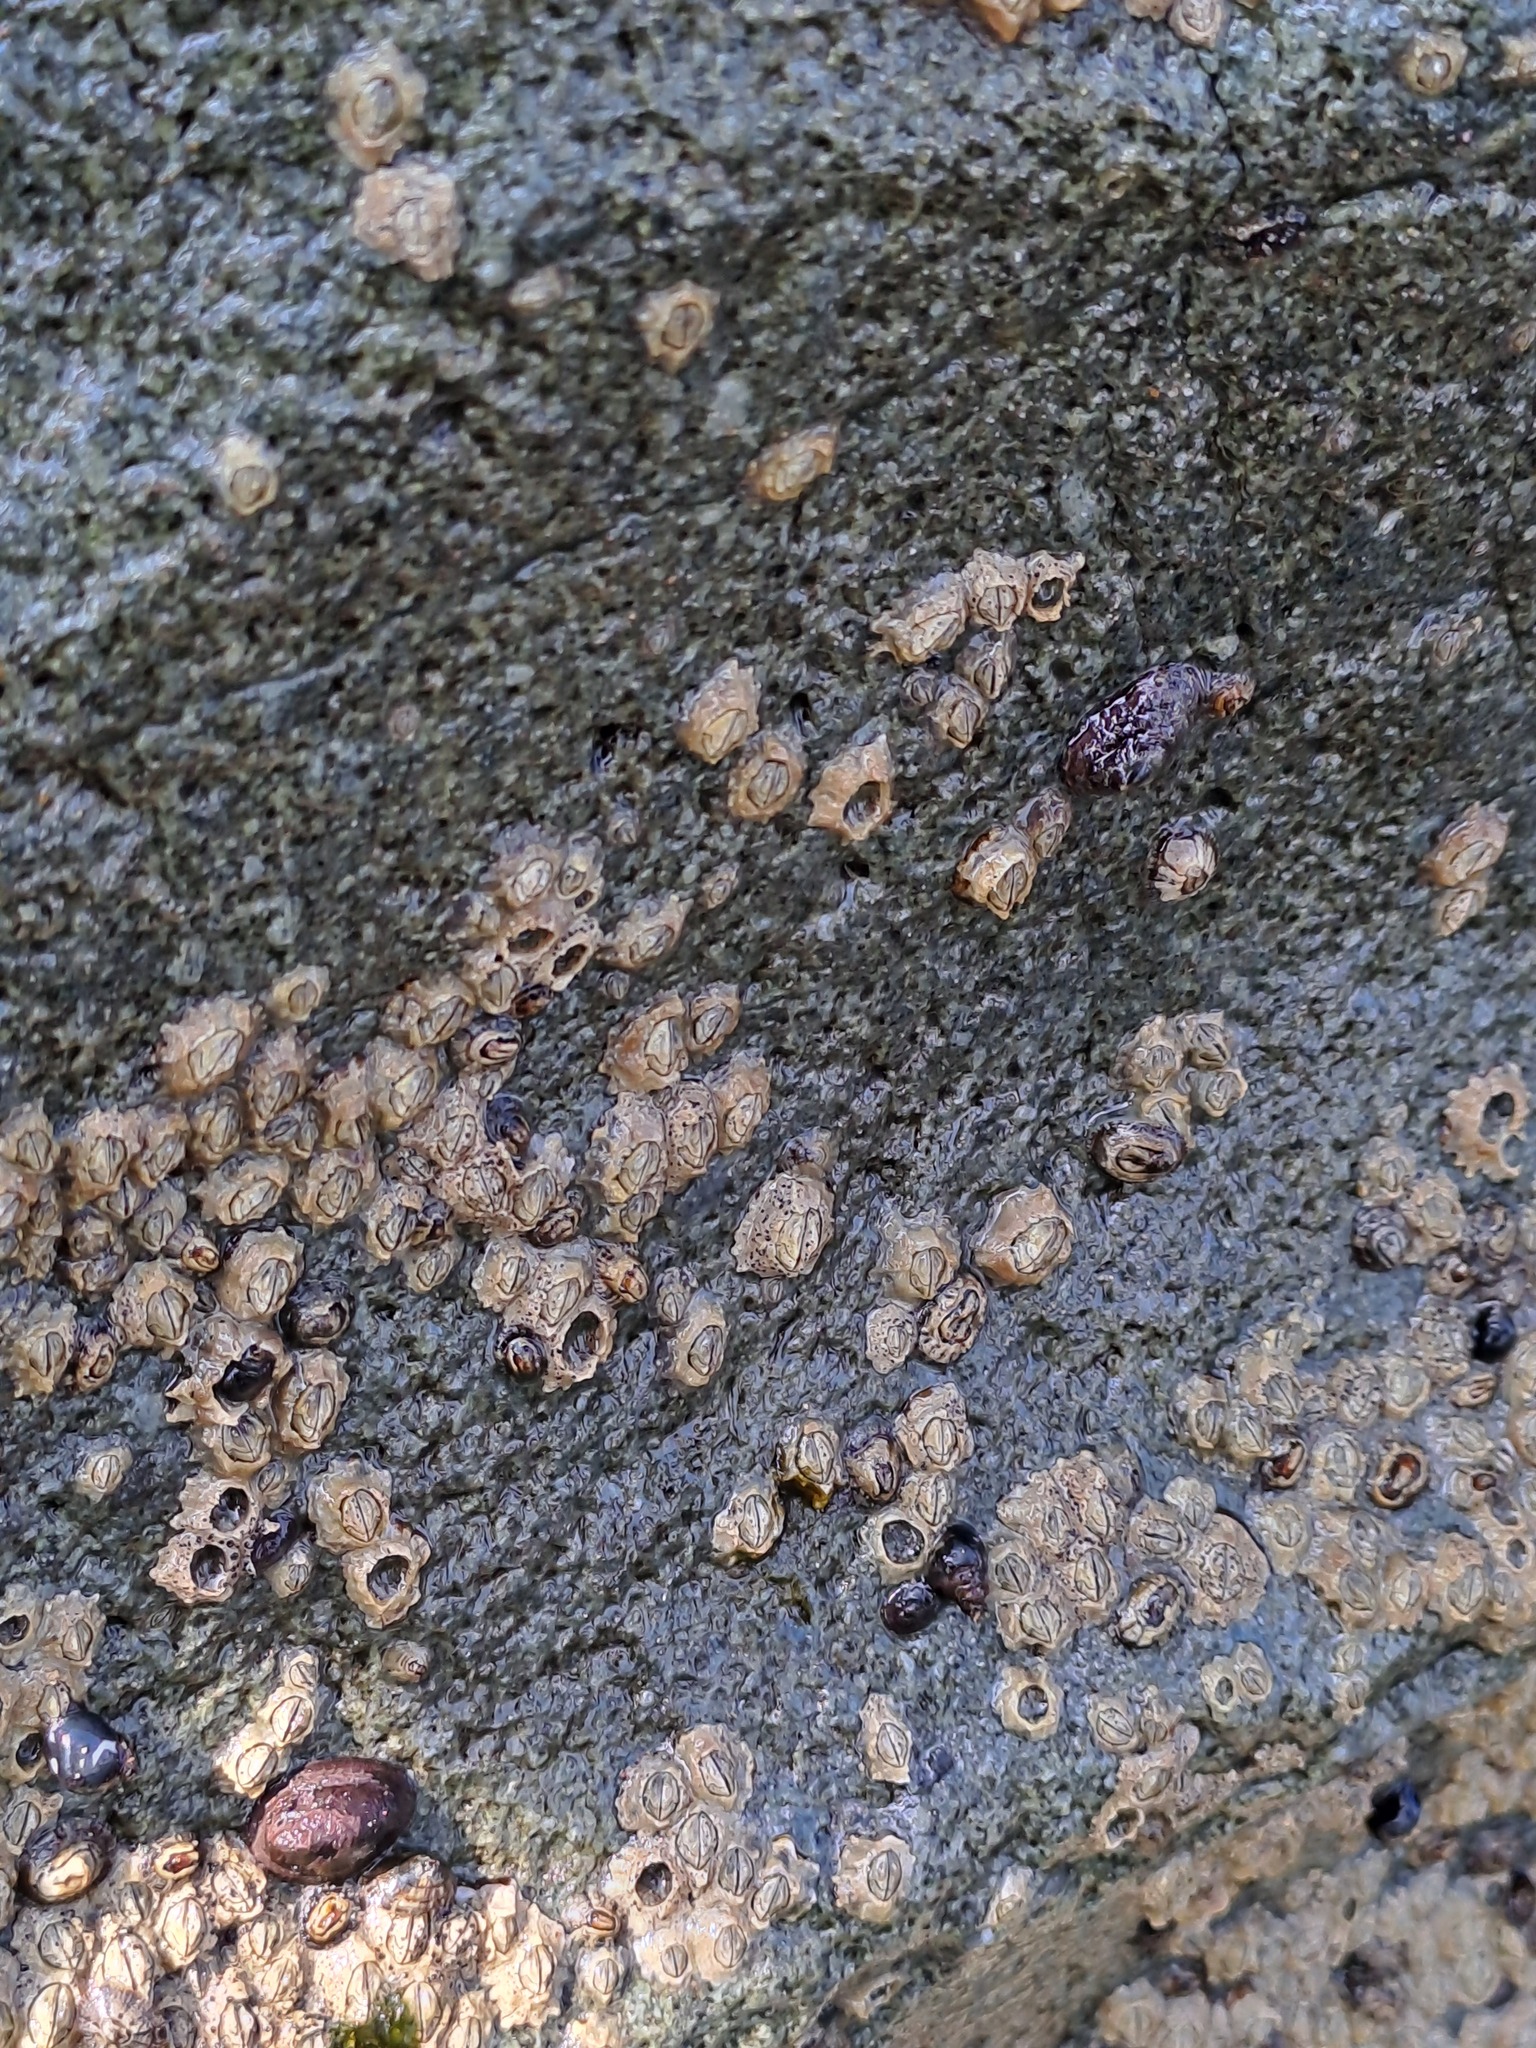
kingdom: Animalia
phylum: Arthropoda
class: Maxillopoda
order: Sessilia
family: Chthamalidae
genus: Jehlius
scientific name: Jehlius cirratus
